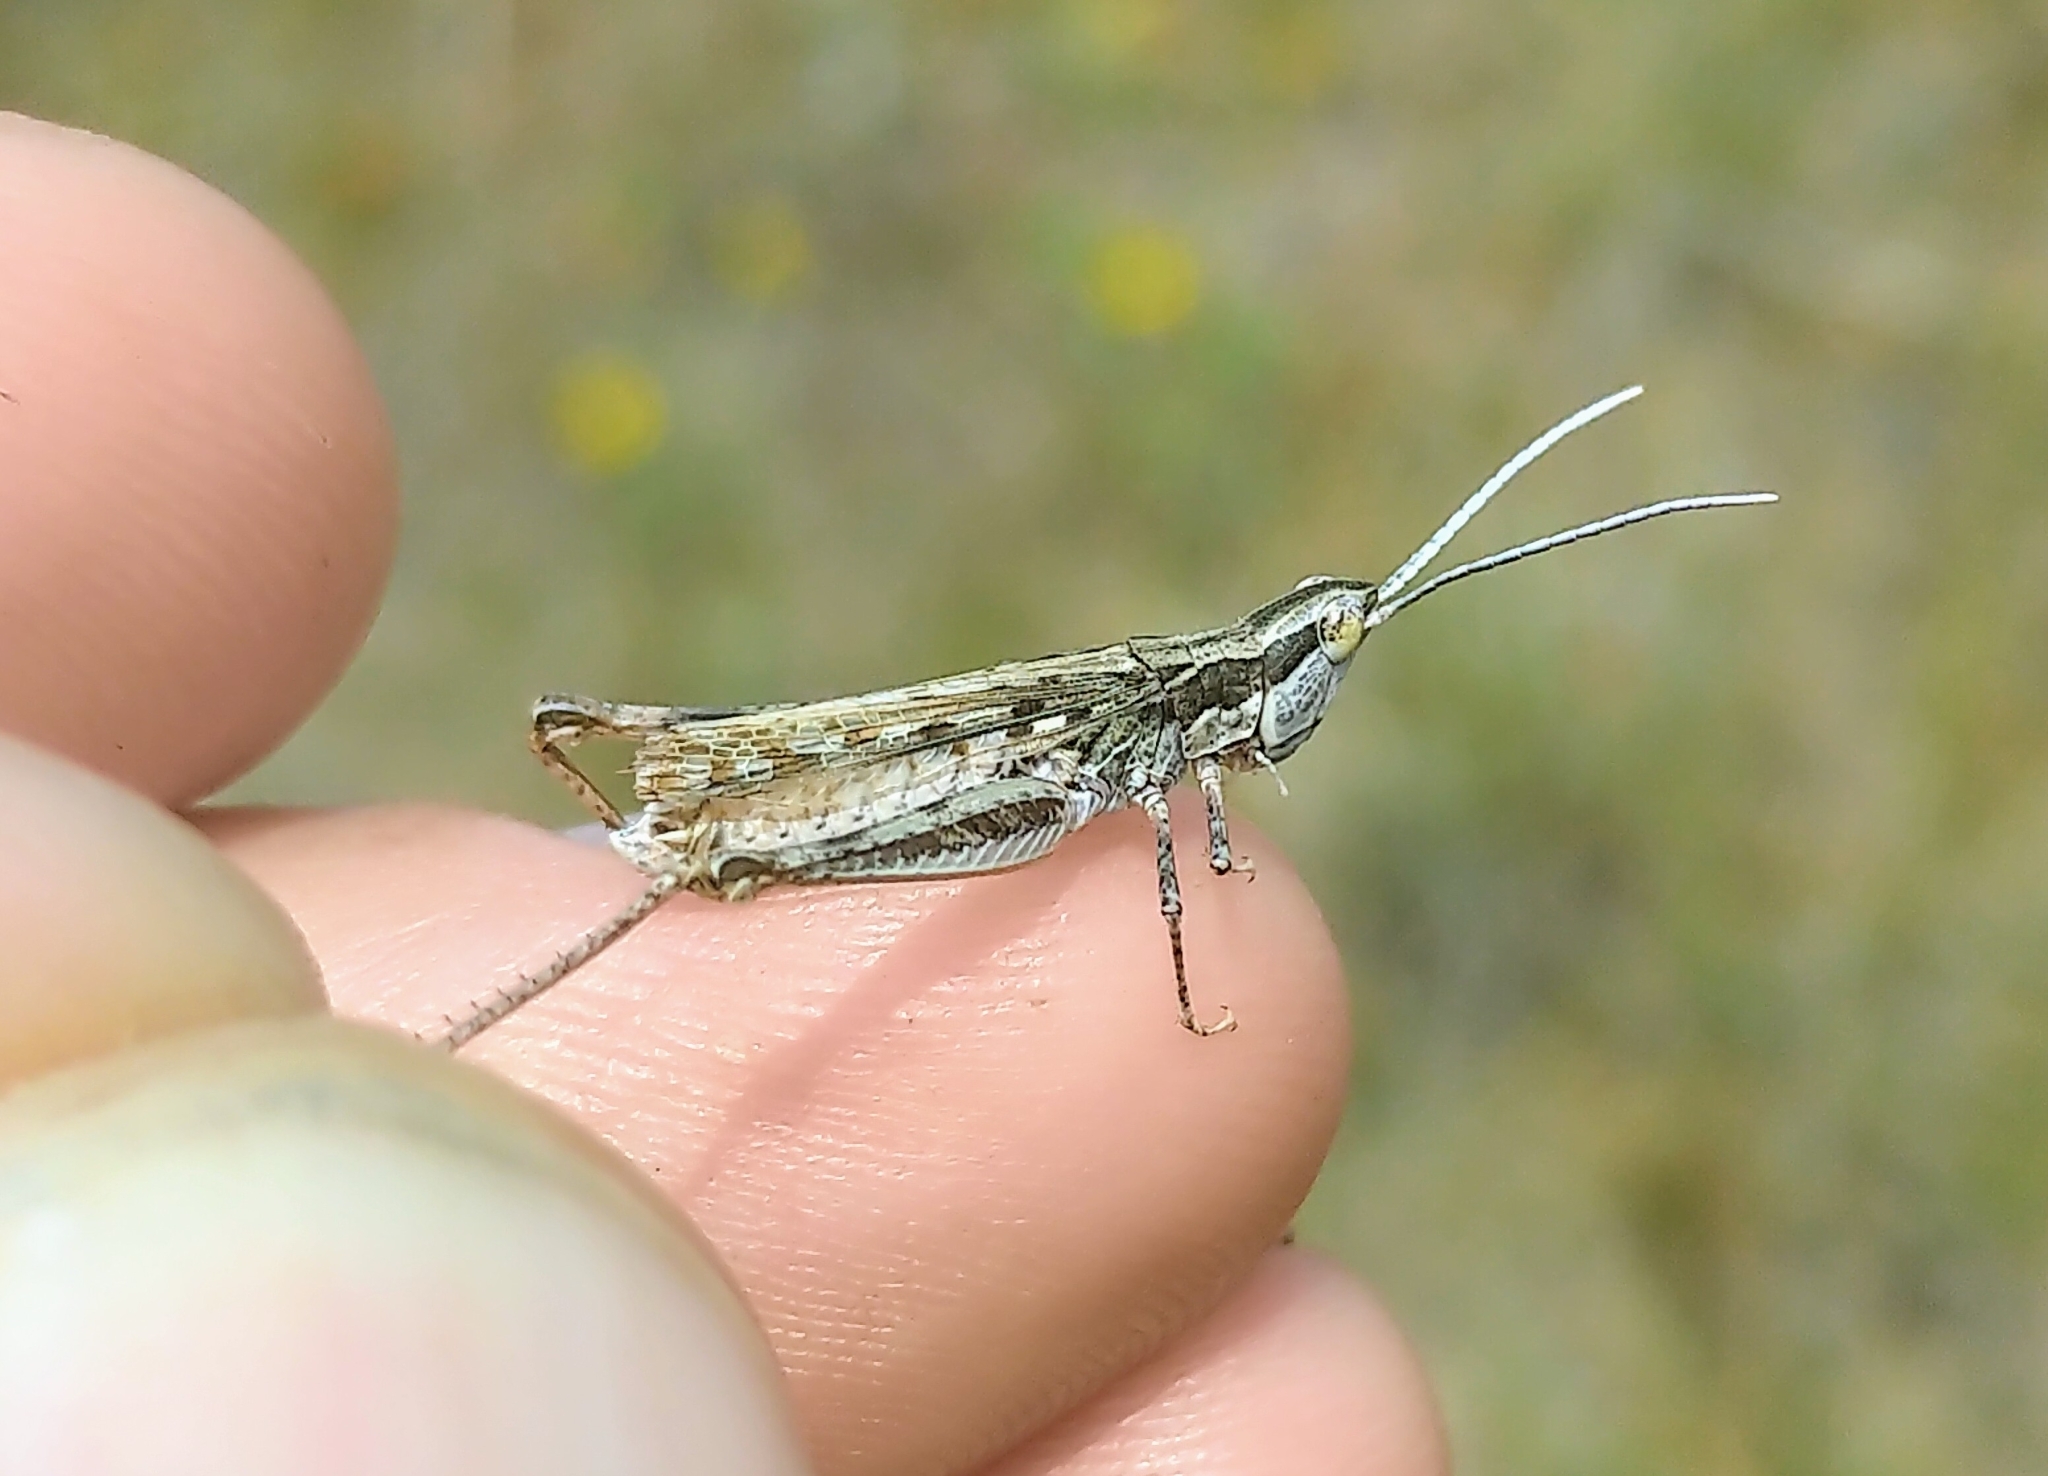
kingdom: Animalia
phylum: Arthropoda
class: Insecta
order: Orthoptera
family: Acrididae
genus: Cordillacris
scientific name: Cordillacris occipitalis
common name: Spotted-winged grasshopper
